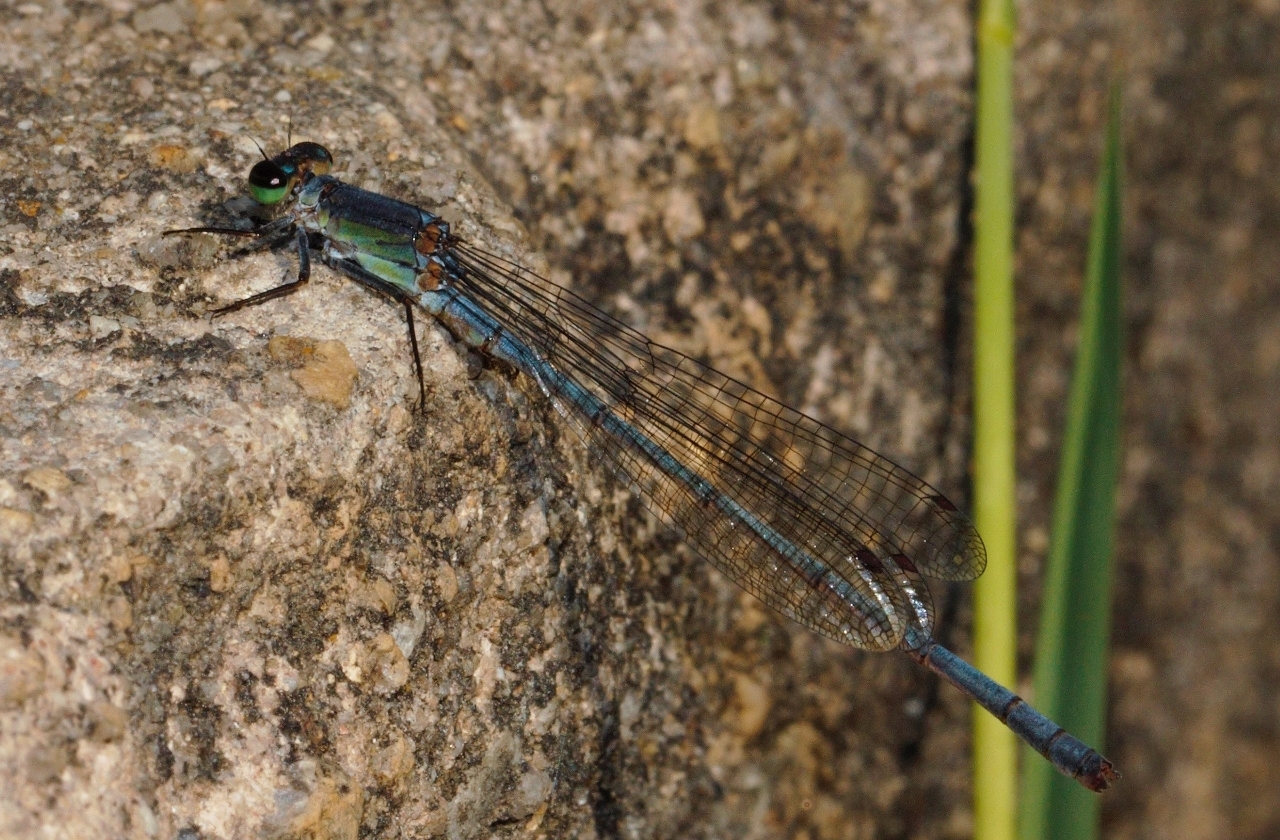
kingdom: Animalia
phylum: Arthropoda
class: Insecta
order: Odonata
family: Coenagrionidae
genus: Pseudagrion
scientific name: Pseudagrion spernatum
